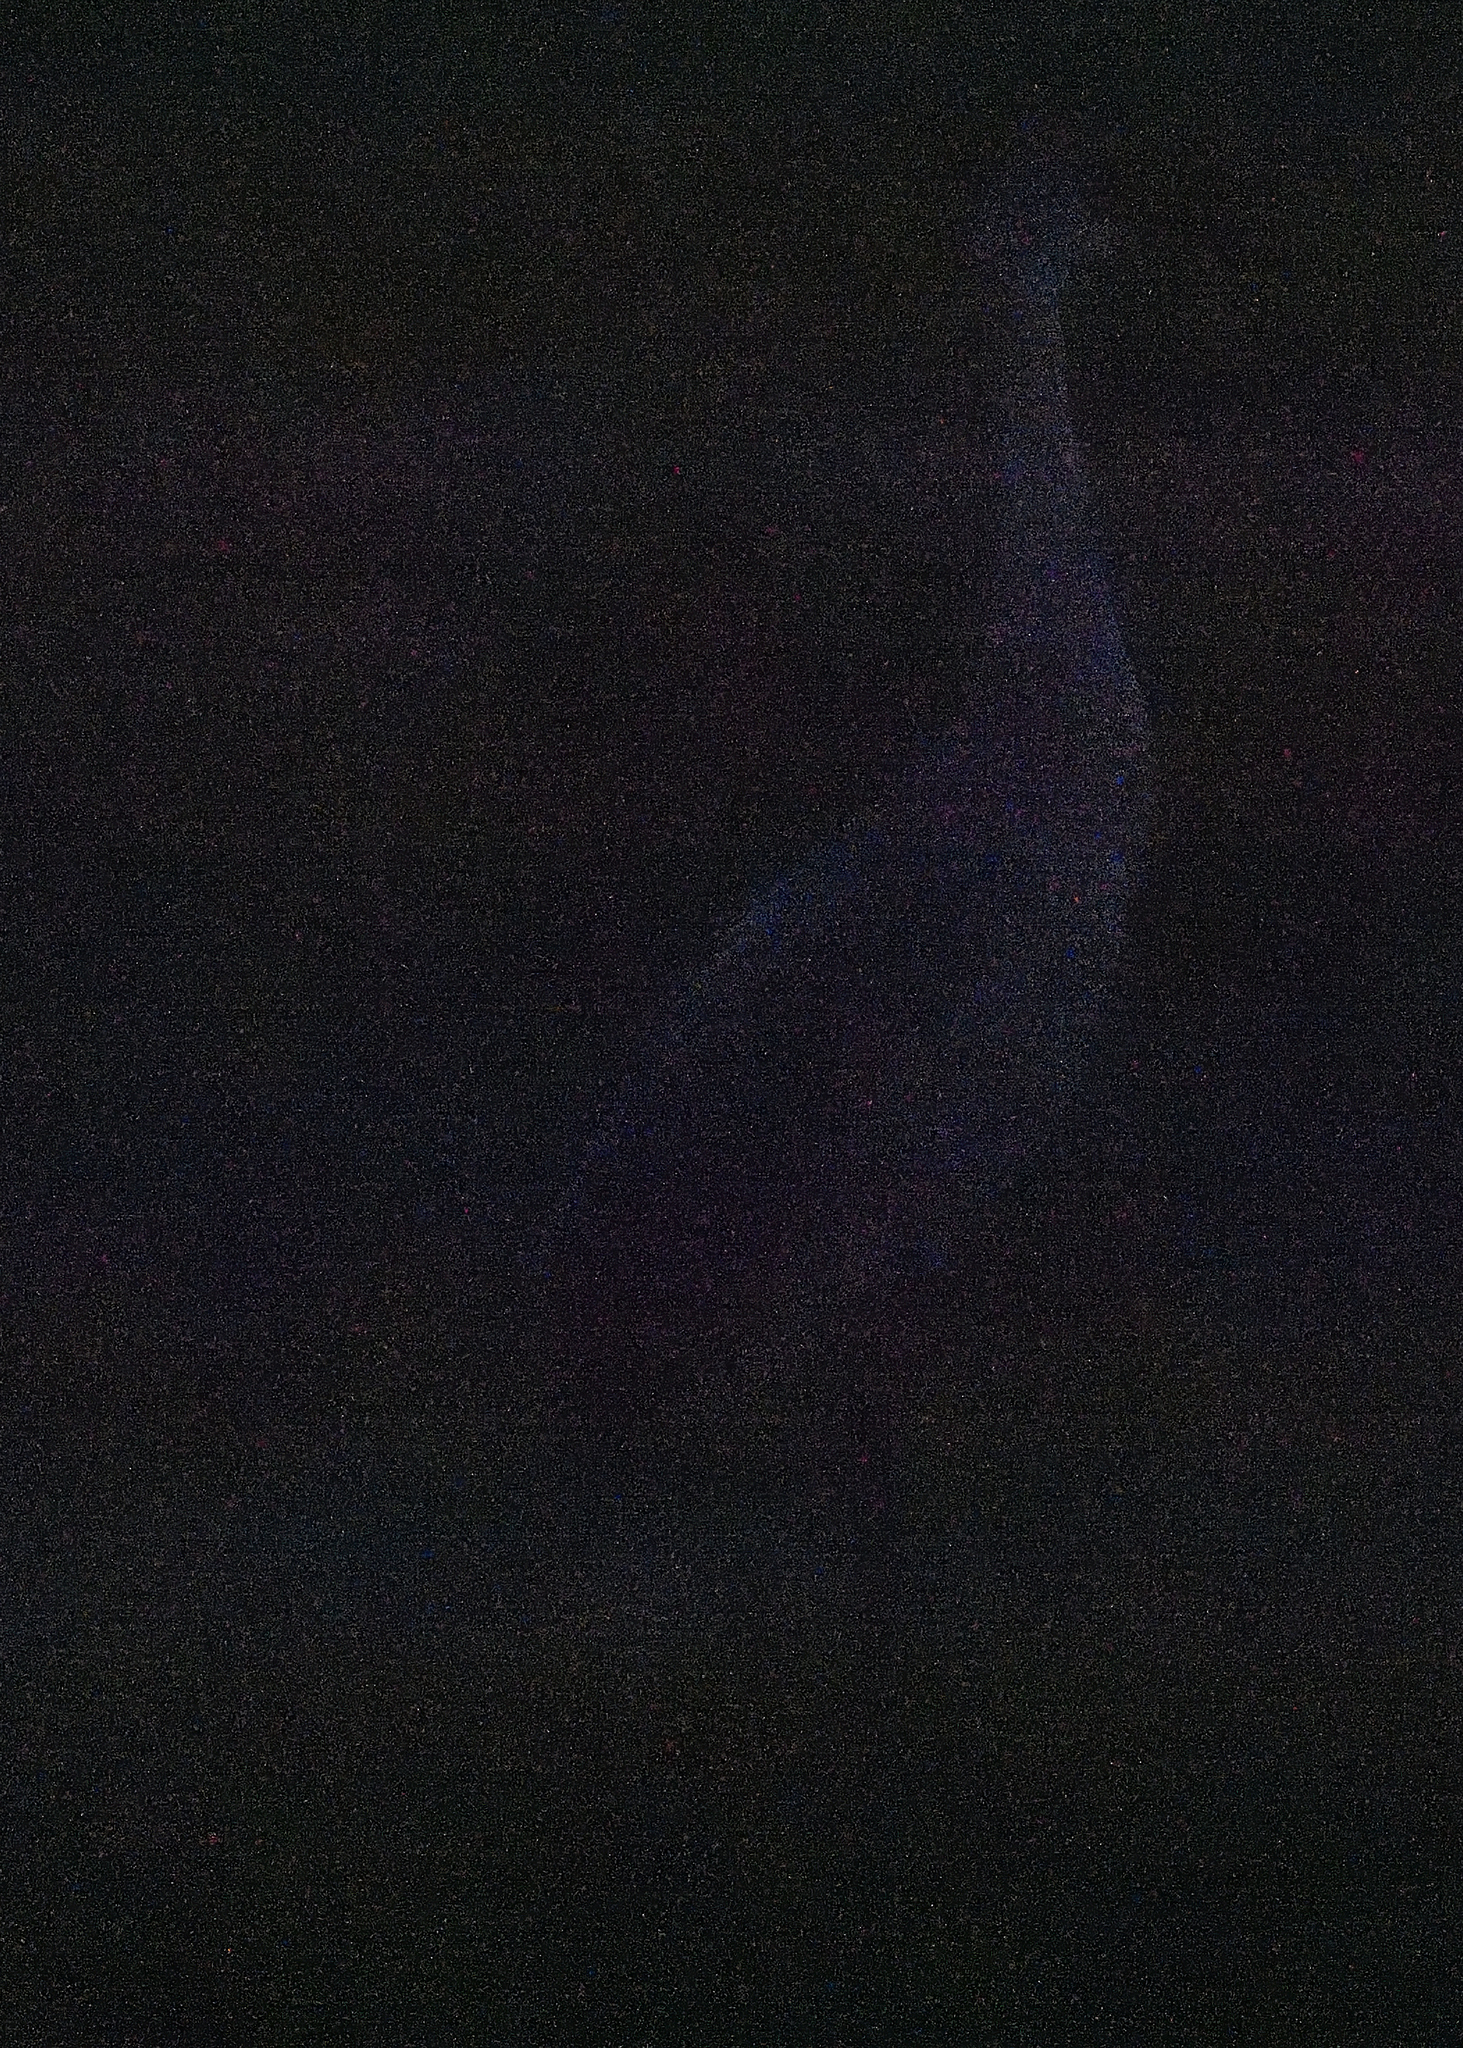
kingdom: Animalia
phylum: Chordata
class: Aves
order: Gruiformes
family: Gruidae
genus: Grus
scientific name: Grus canadensis
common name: Sandhill crane
